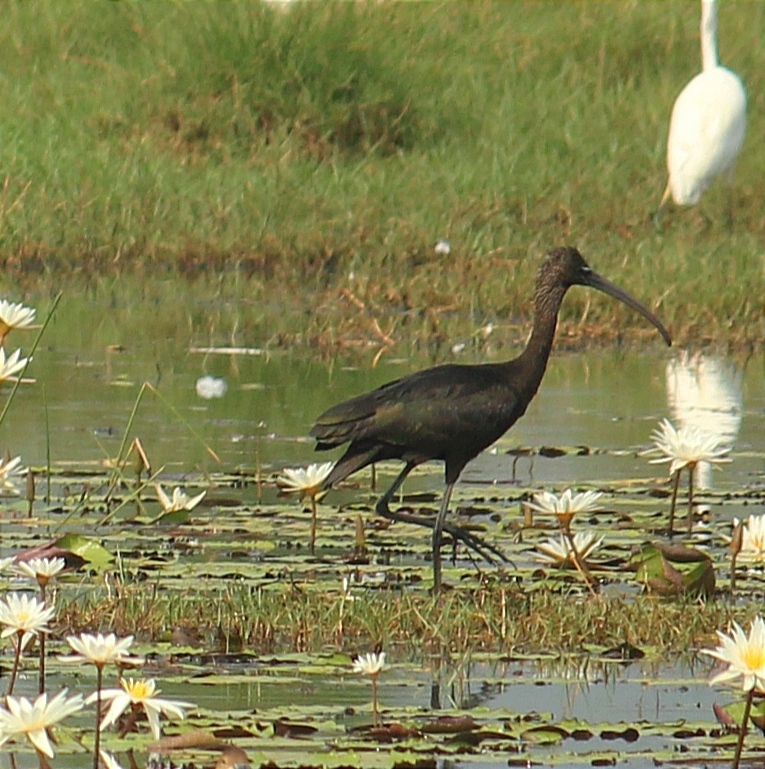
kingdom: Animalia
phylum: Chordata
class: Aves
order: Pelecaniformes
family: Threskiornithidae
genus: Plegadis
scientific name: Plegadis falcinellus
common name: Glossy ibis
